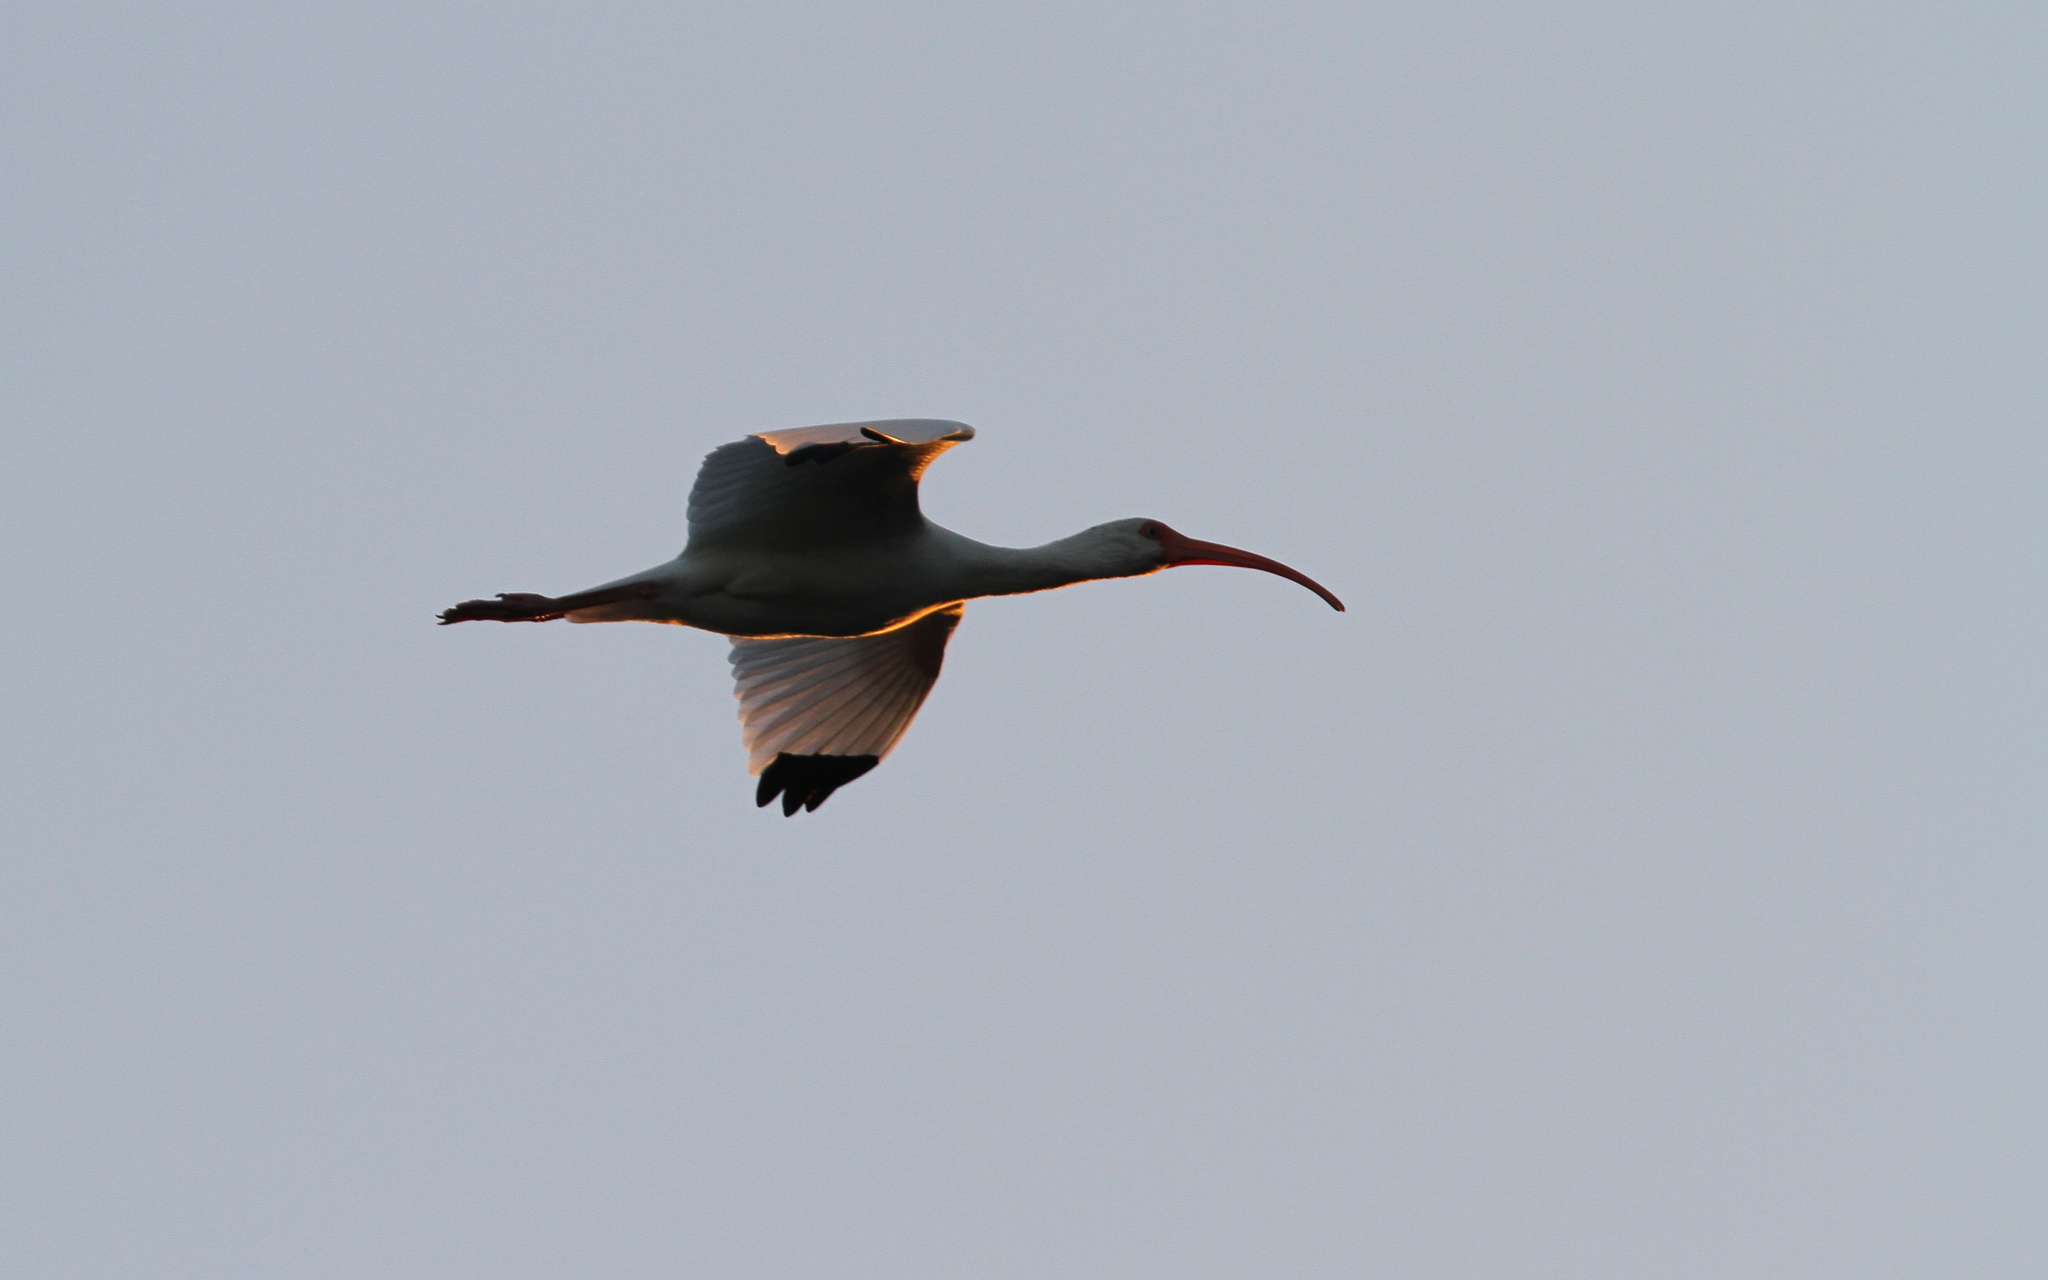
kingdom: Animalia
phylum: Chordata
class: Aves
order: Pelecaniformes
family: Threskiornithidae
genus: Eudocimus
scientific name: Eudocimus albus
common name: White ibis
